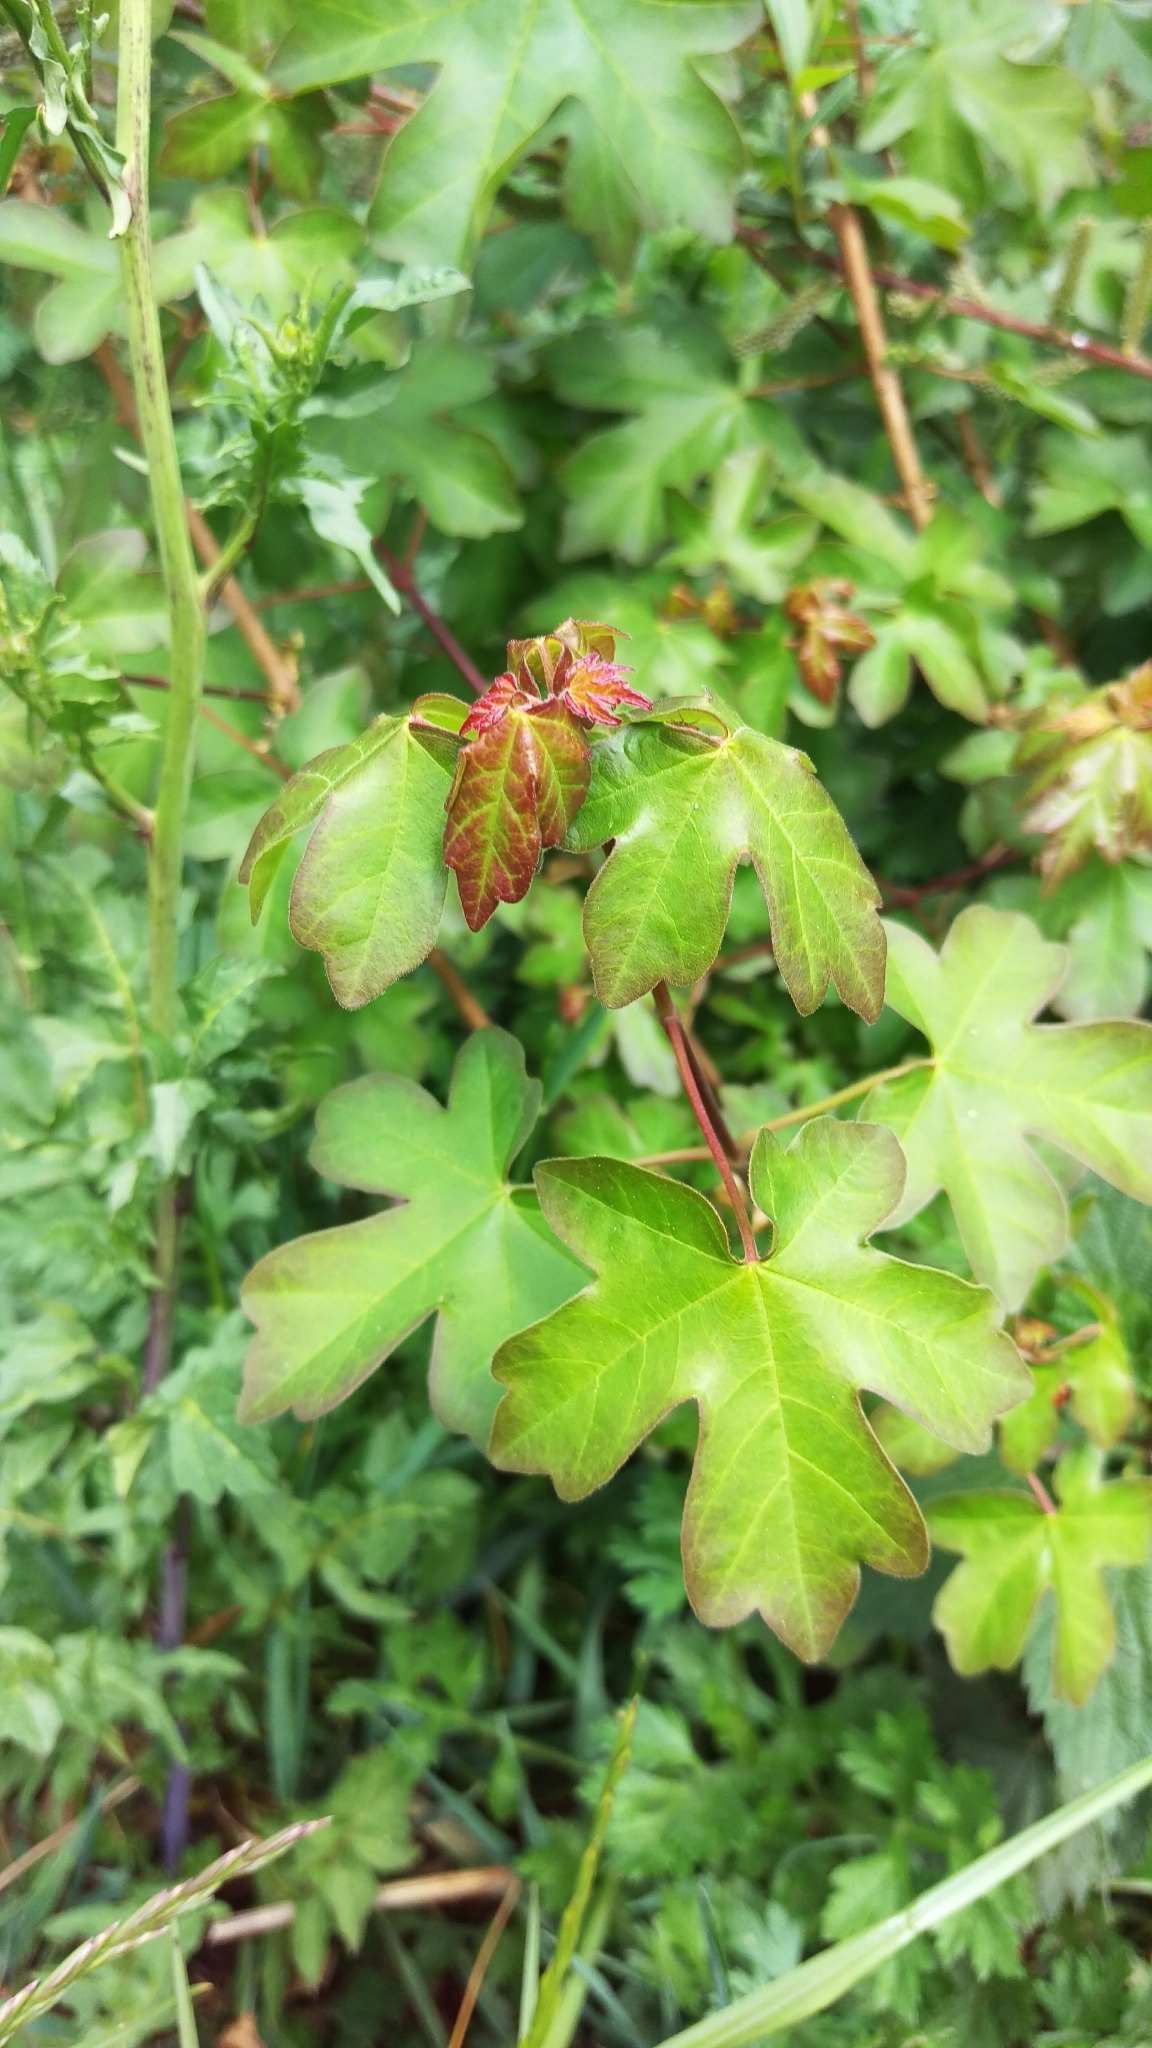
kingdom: Plantae
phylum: Tracheophyta
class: Magnoliopsida
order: Sapindales
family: Sapindaceae
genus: Acer
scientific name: Acer campestre
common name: Field maple
